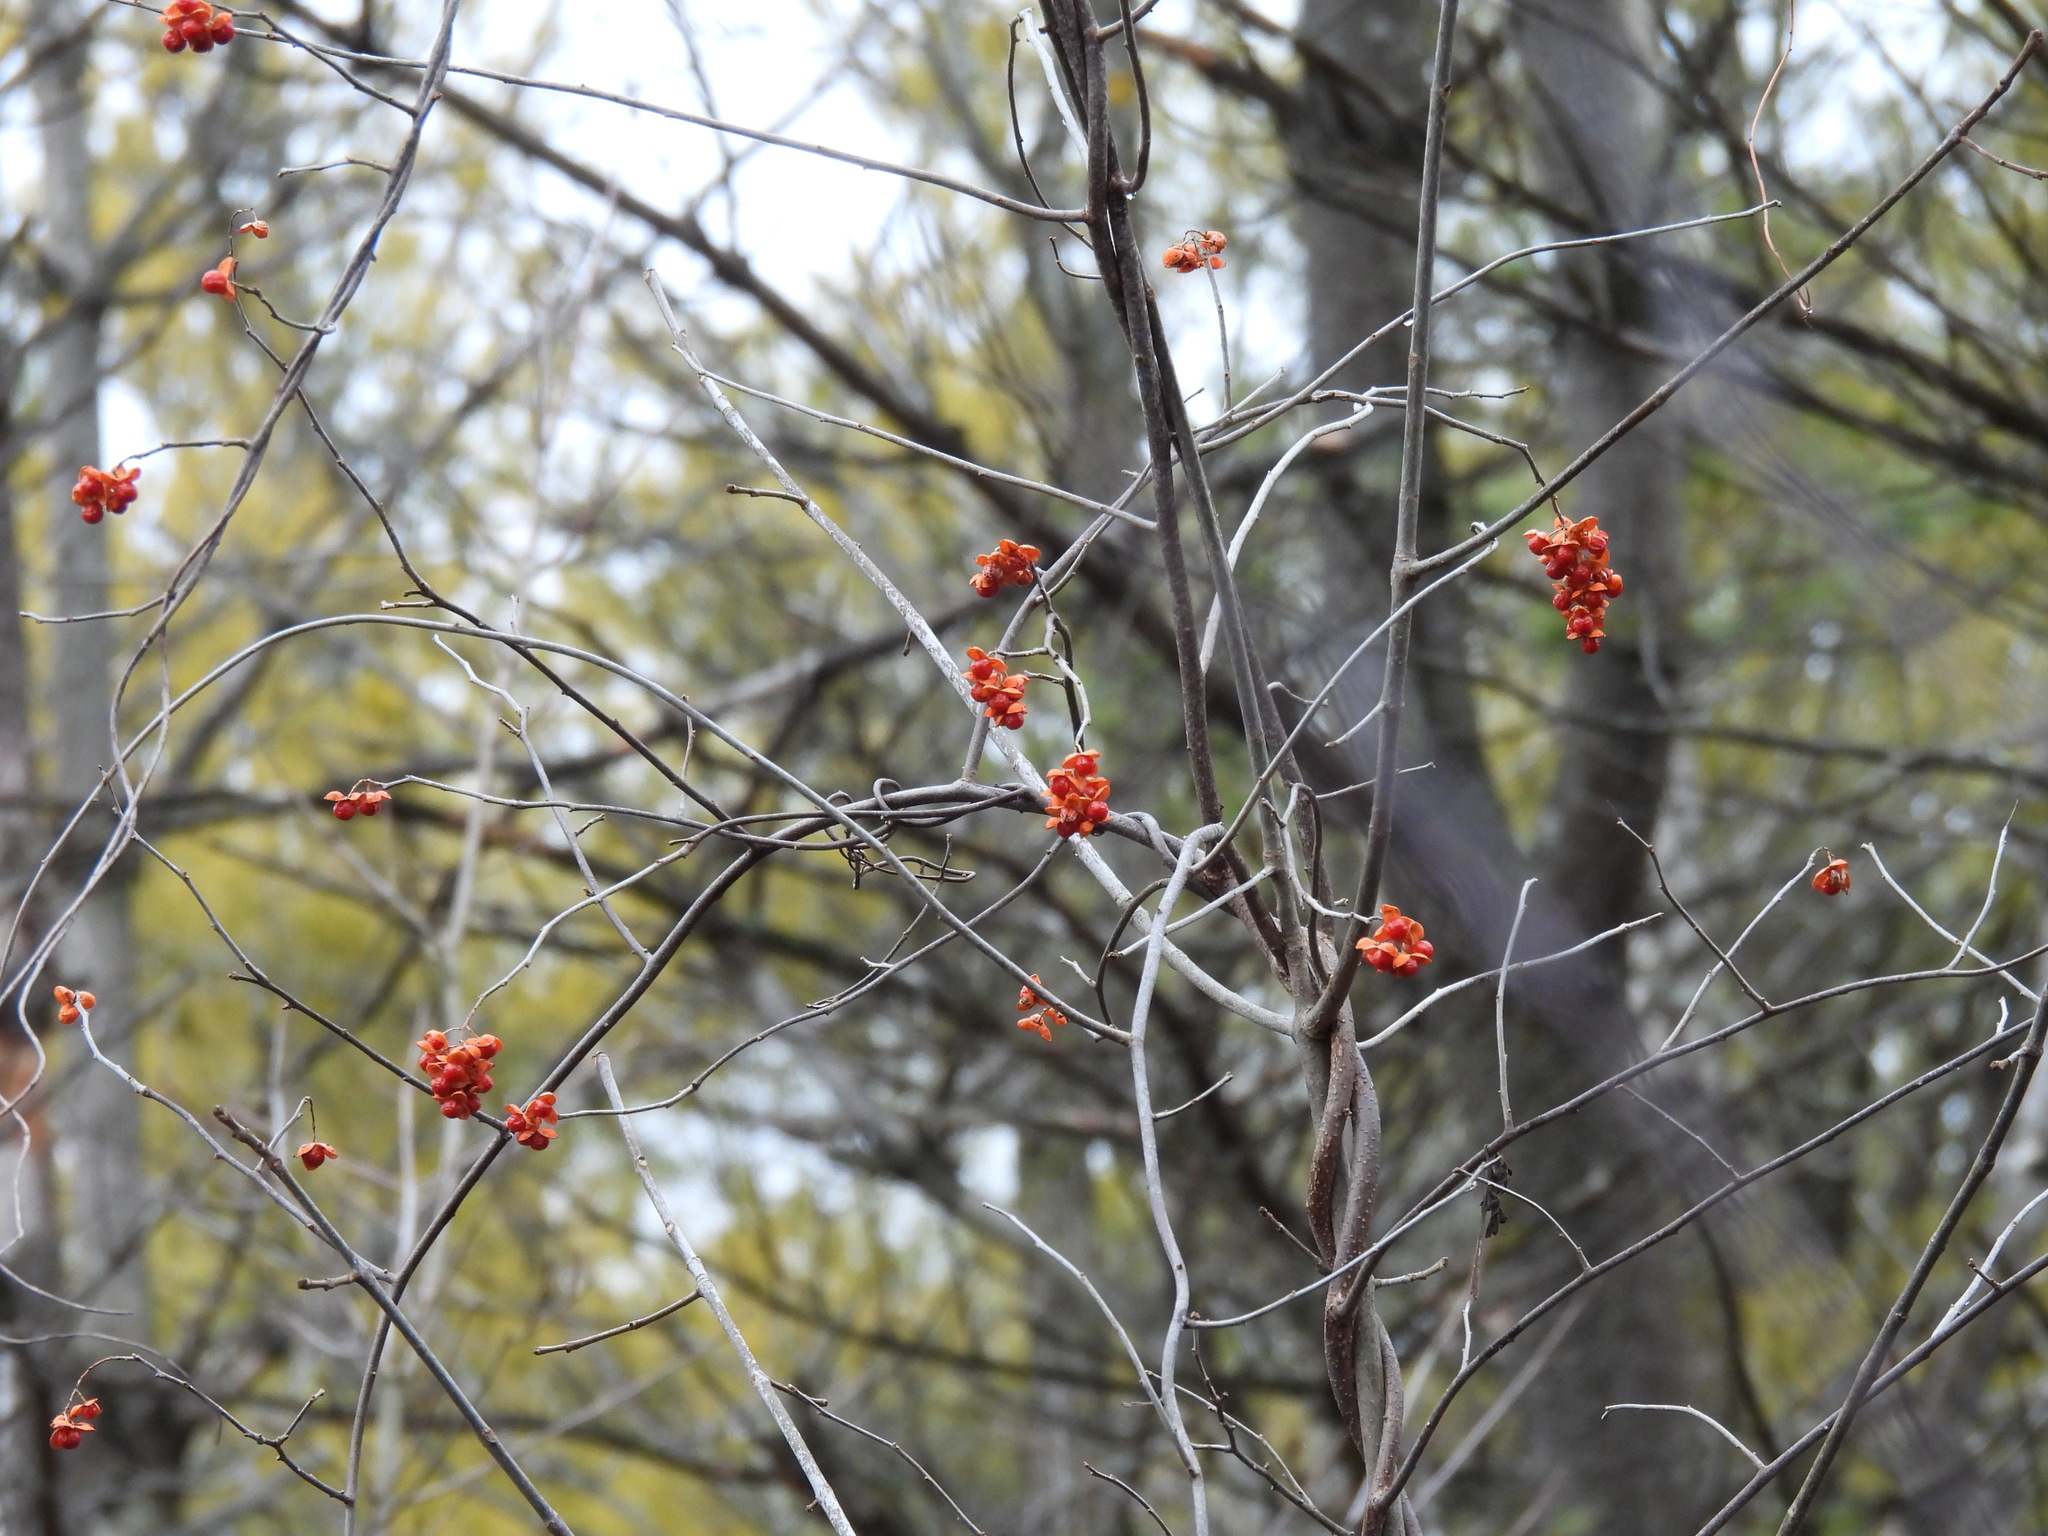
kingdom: Plantae
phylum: Tracheophyta
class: Magnoliopsida
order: Celastrales
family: Celastraceae
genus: Celastrus
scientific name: Celastrus scandens
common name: American bittersweet
